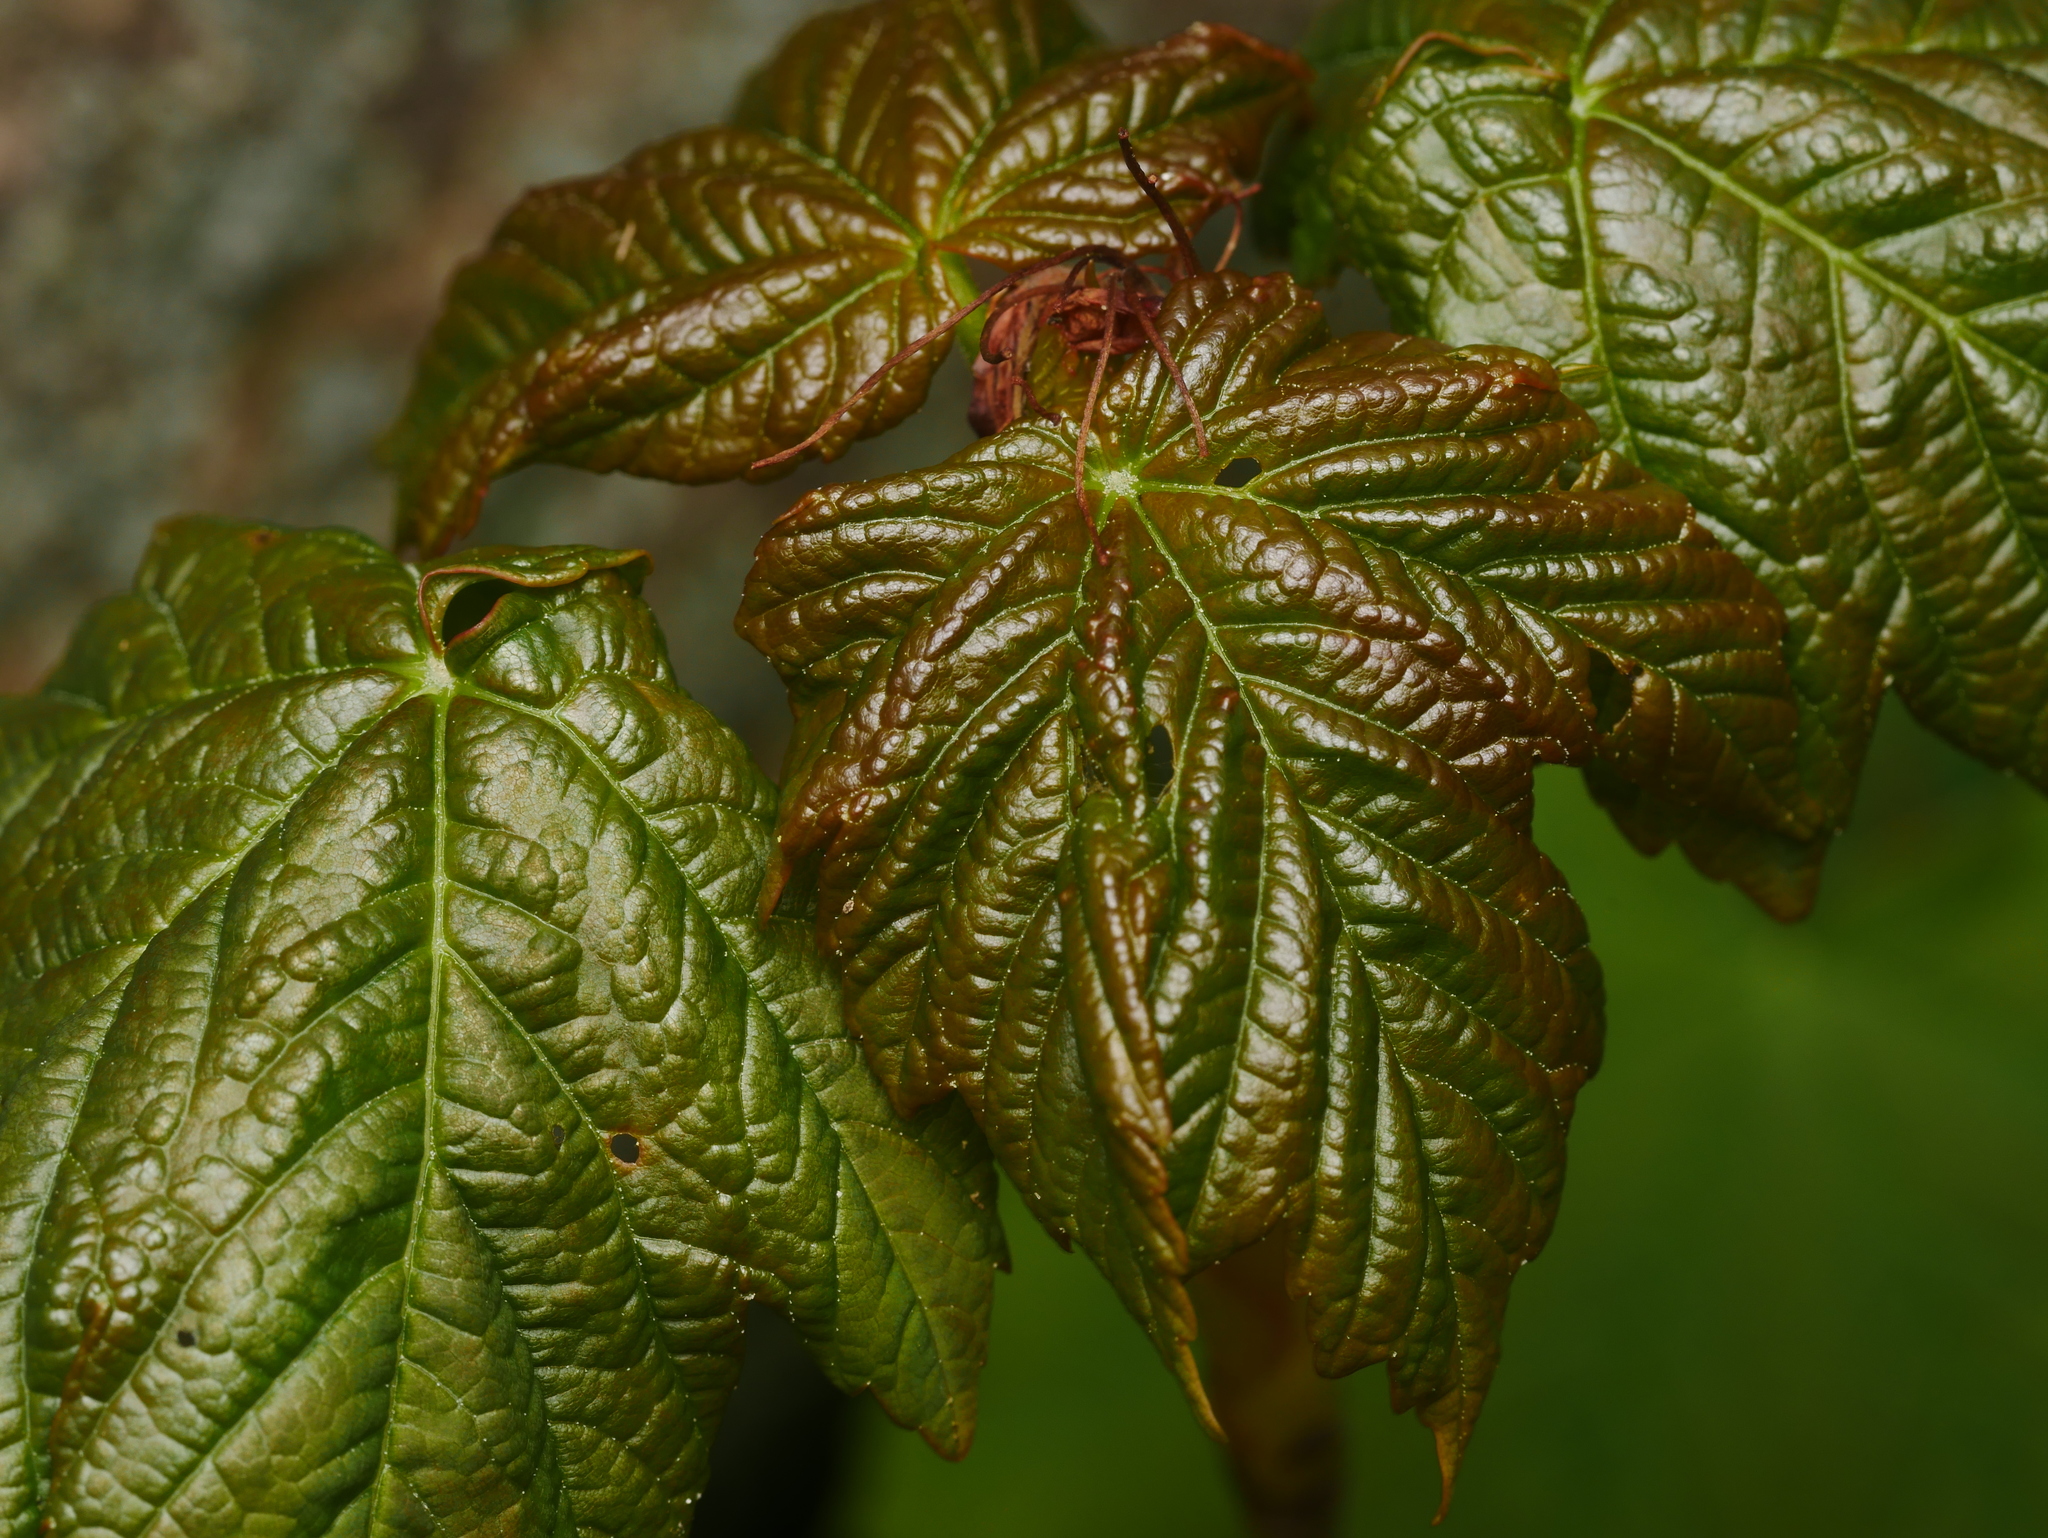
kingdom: Plantae
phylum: Tracheophyta
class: Magnoliopsida
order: Sapindales
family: Sapindaceae
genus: Acer
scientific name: Acer pseudoplatanus
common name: Sycamore
